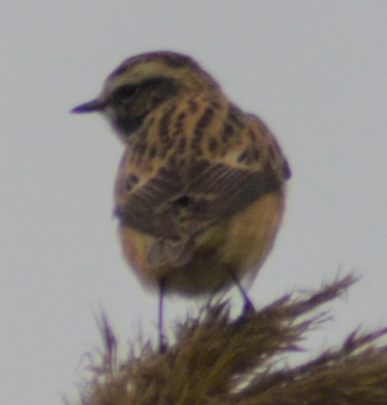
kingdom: Animalia
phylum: Chordata
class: Aves
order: Passeriformes
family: Muscicapidae
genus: Saxicola
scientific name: Saxicola rubetra
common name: Whinchat
